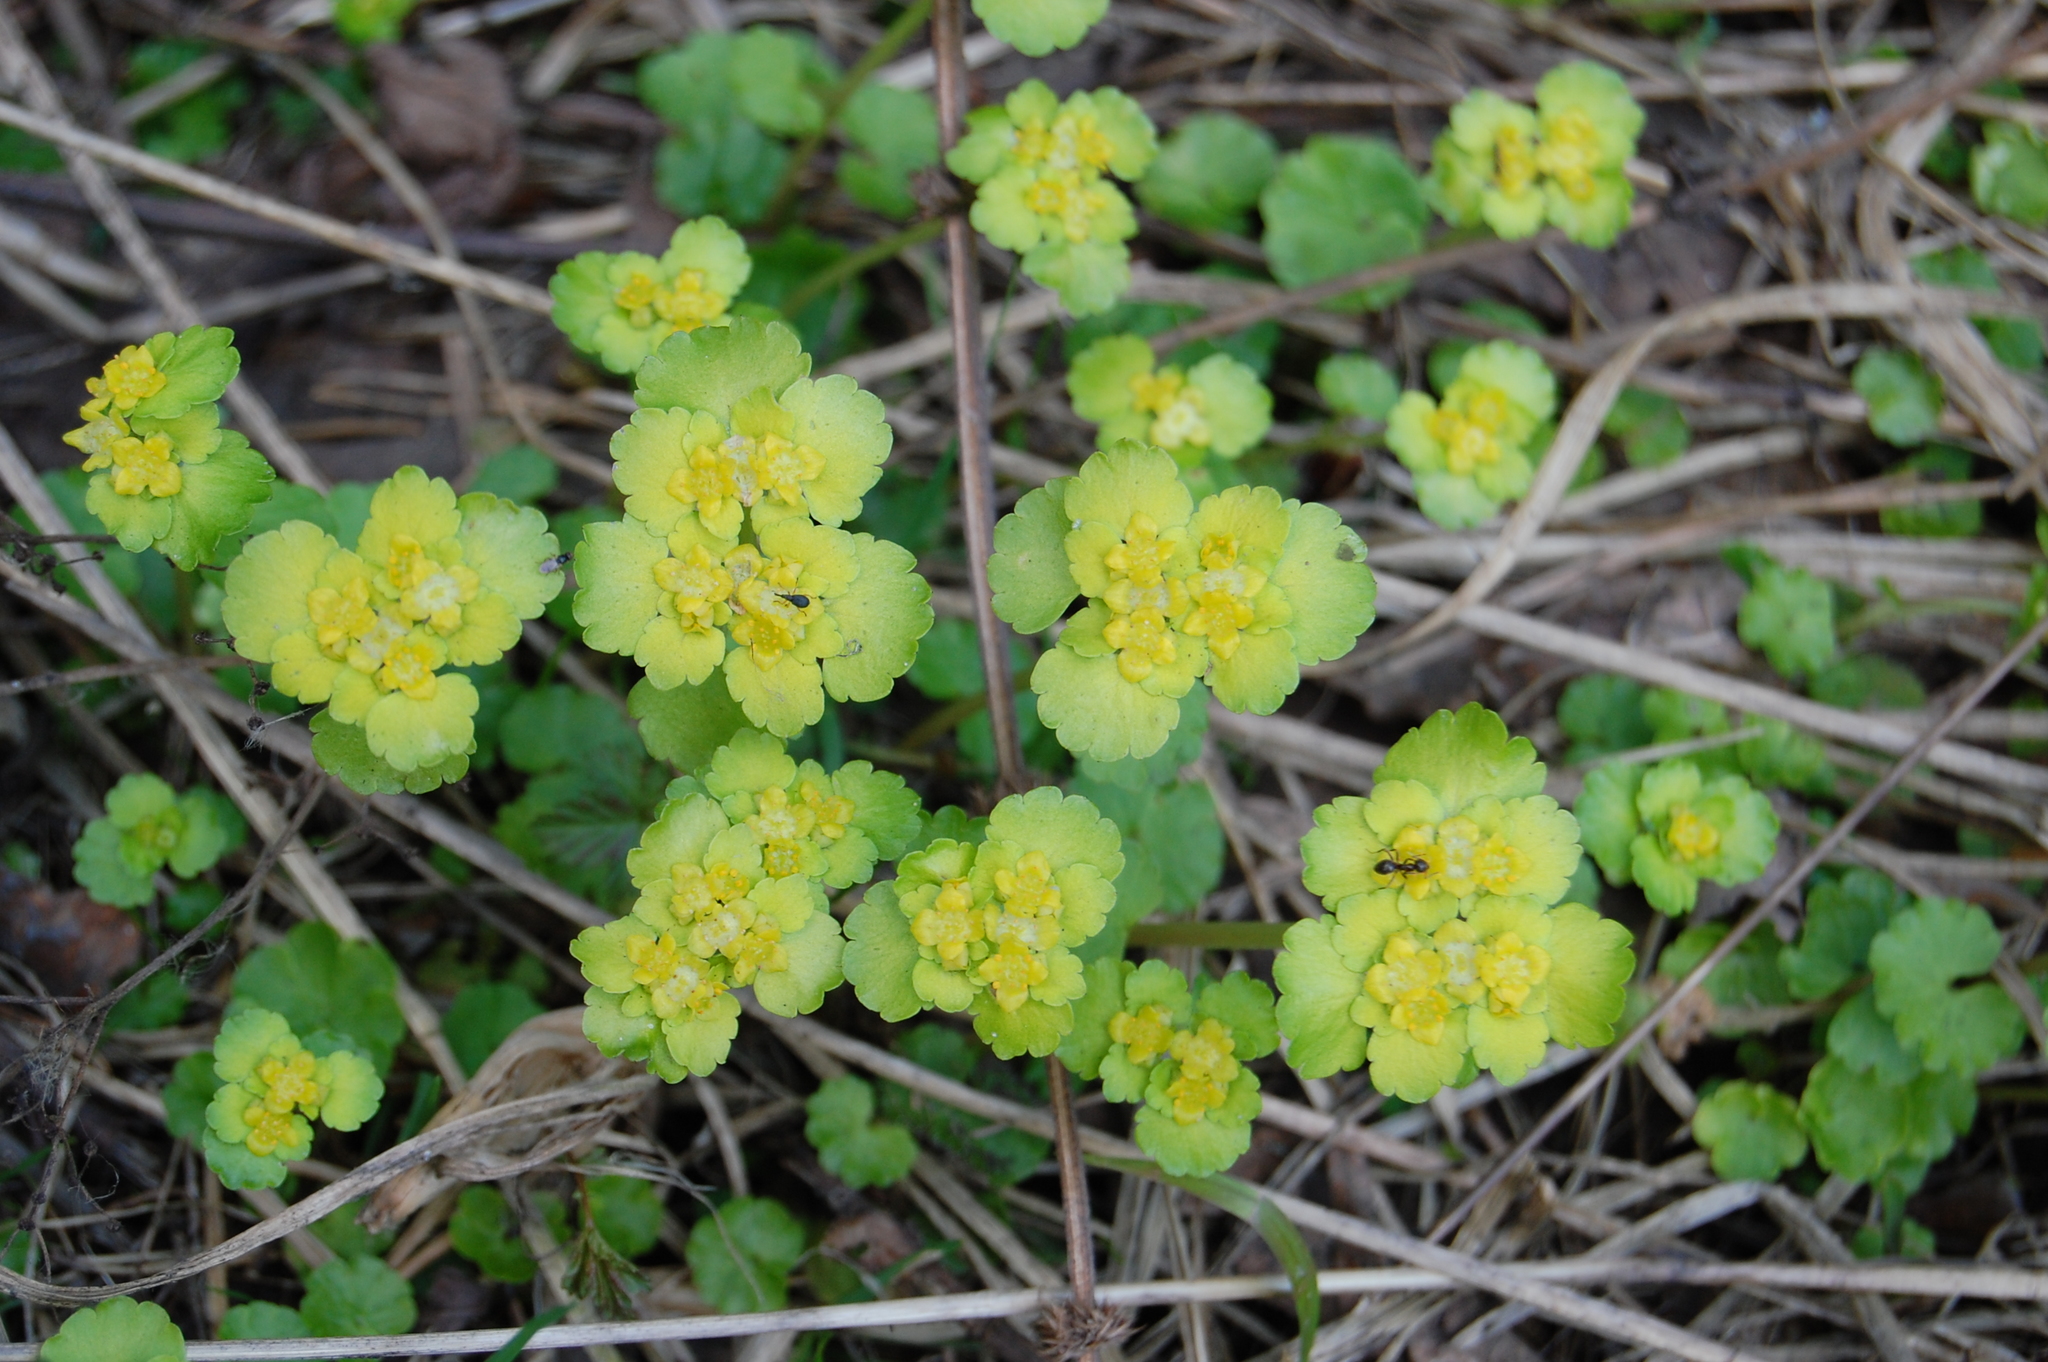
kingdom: Plantae
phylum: Tracheophyta
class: Magnoliopsida
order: Saxifragales
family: Saxifragaceae
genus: Chrysosplenium
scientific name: Chrysosplenium alternifolium
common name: Alternate-leaved golden-saxifrage
